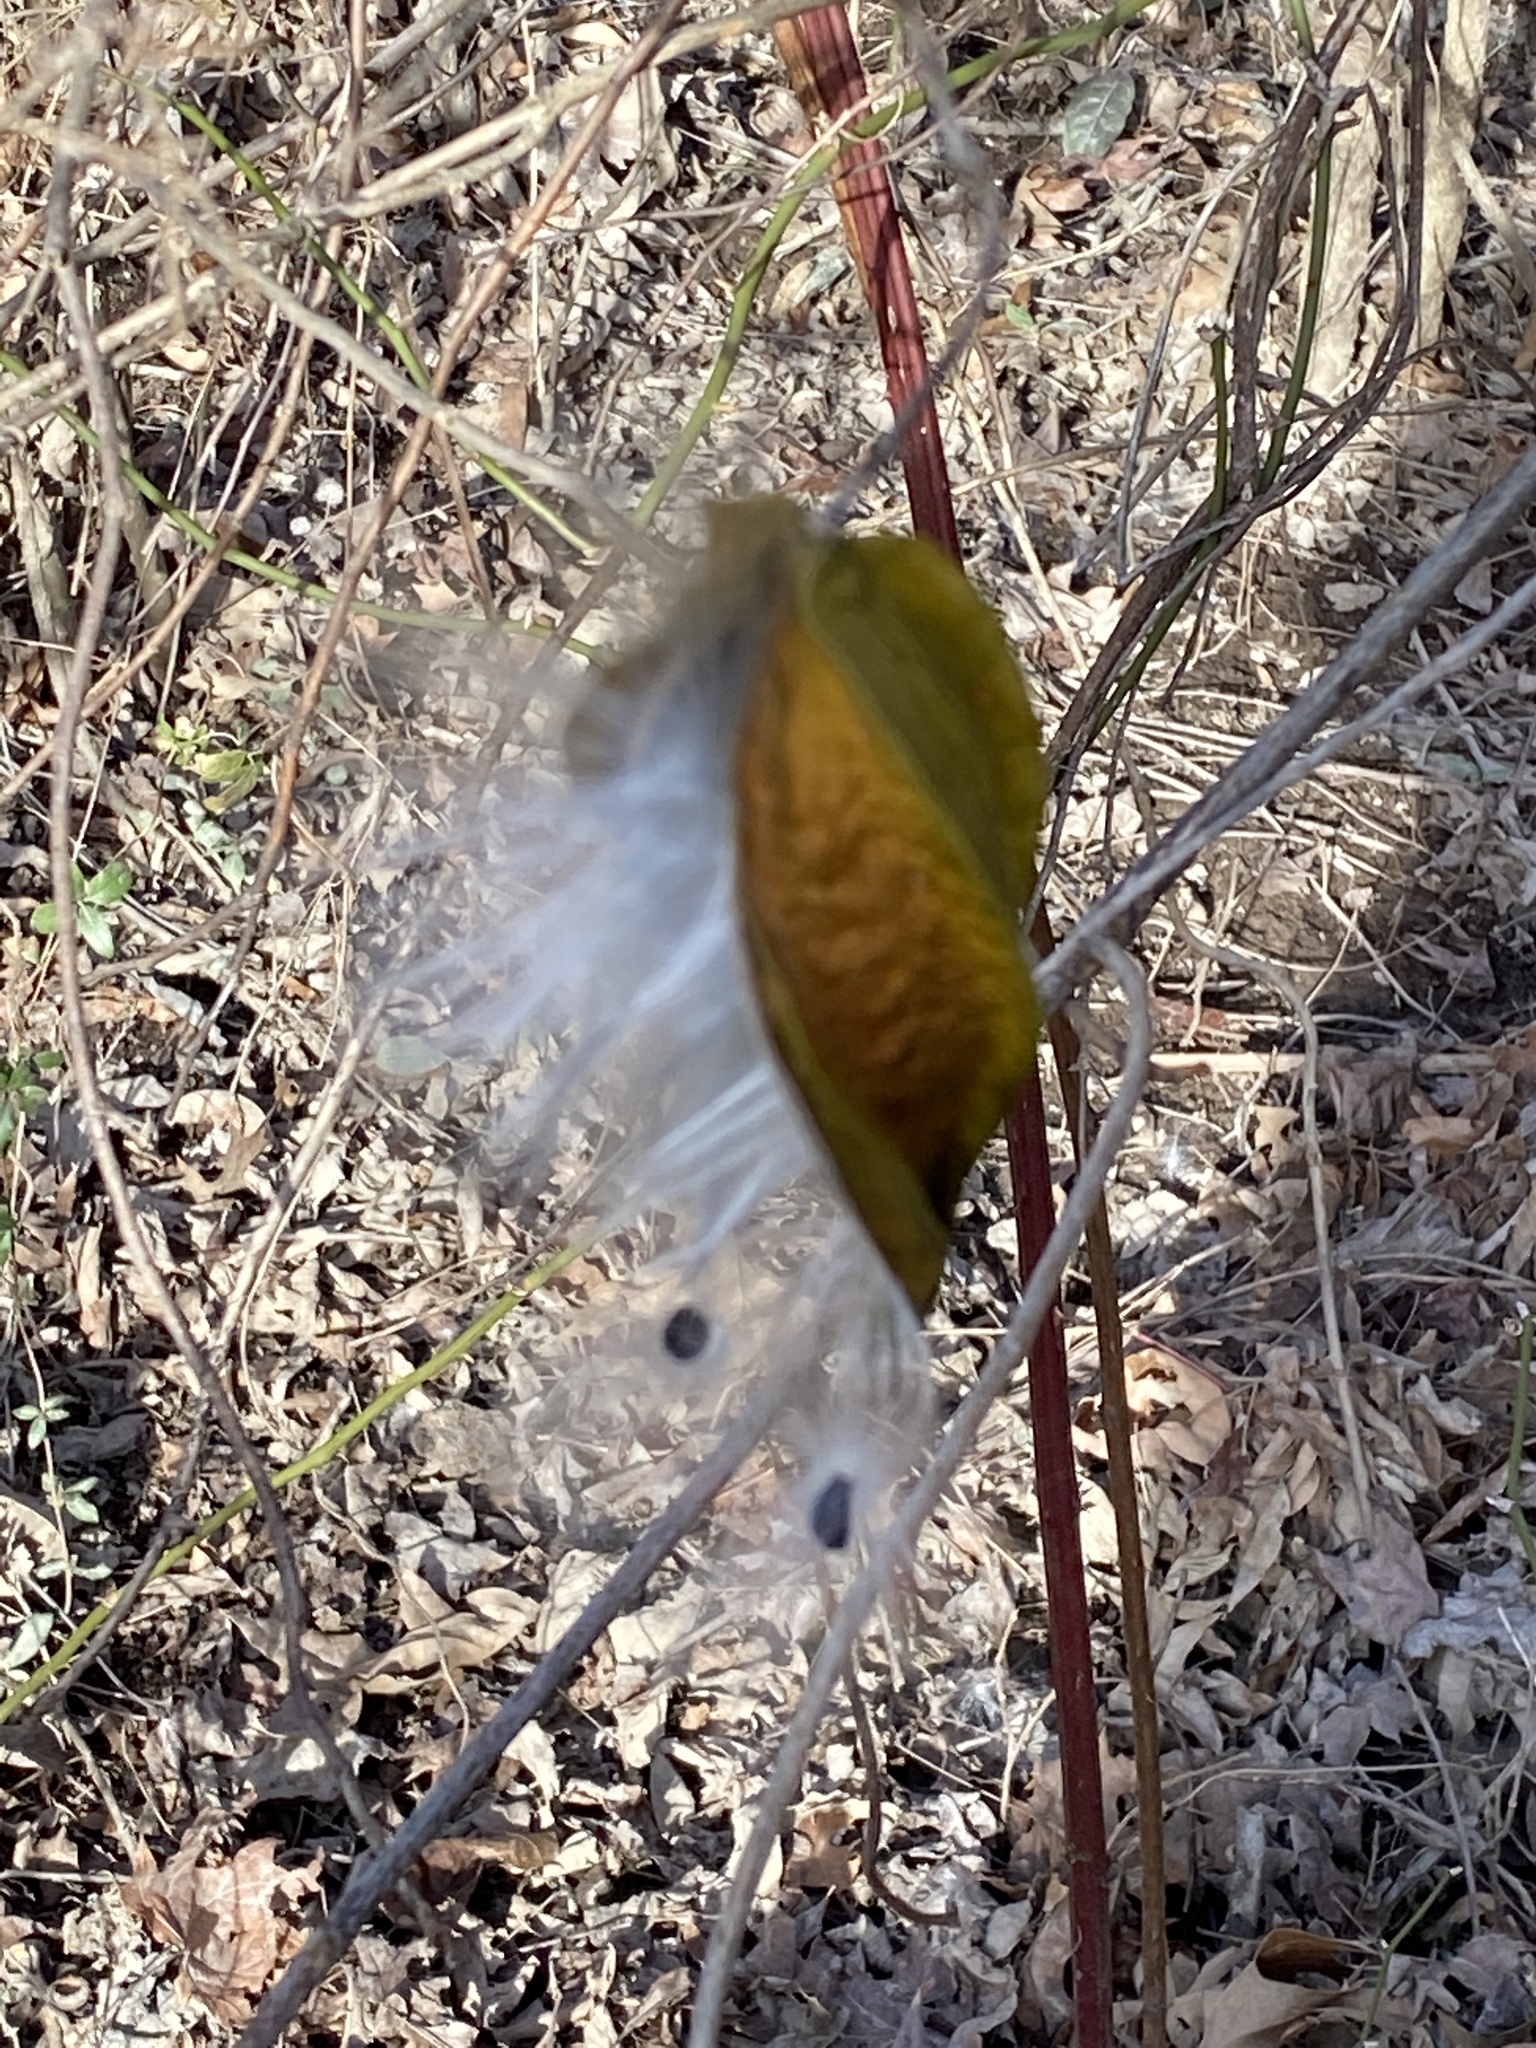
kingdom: Plantae
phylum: Tracheophyta
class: Magnoliopsida
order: Gentianales
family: Apocynaceae
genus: Gonolobus
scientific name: Gonolobus suberosus
